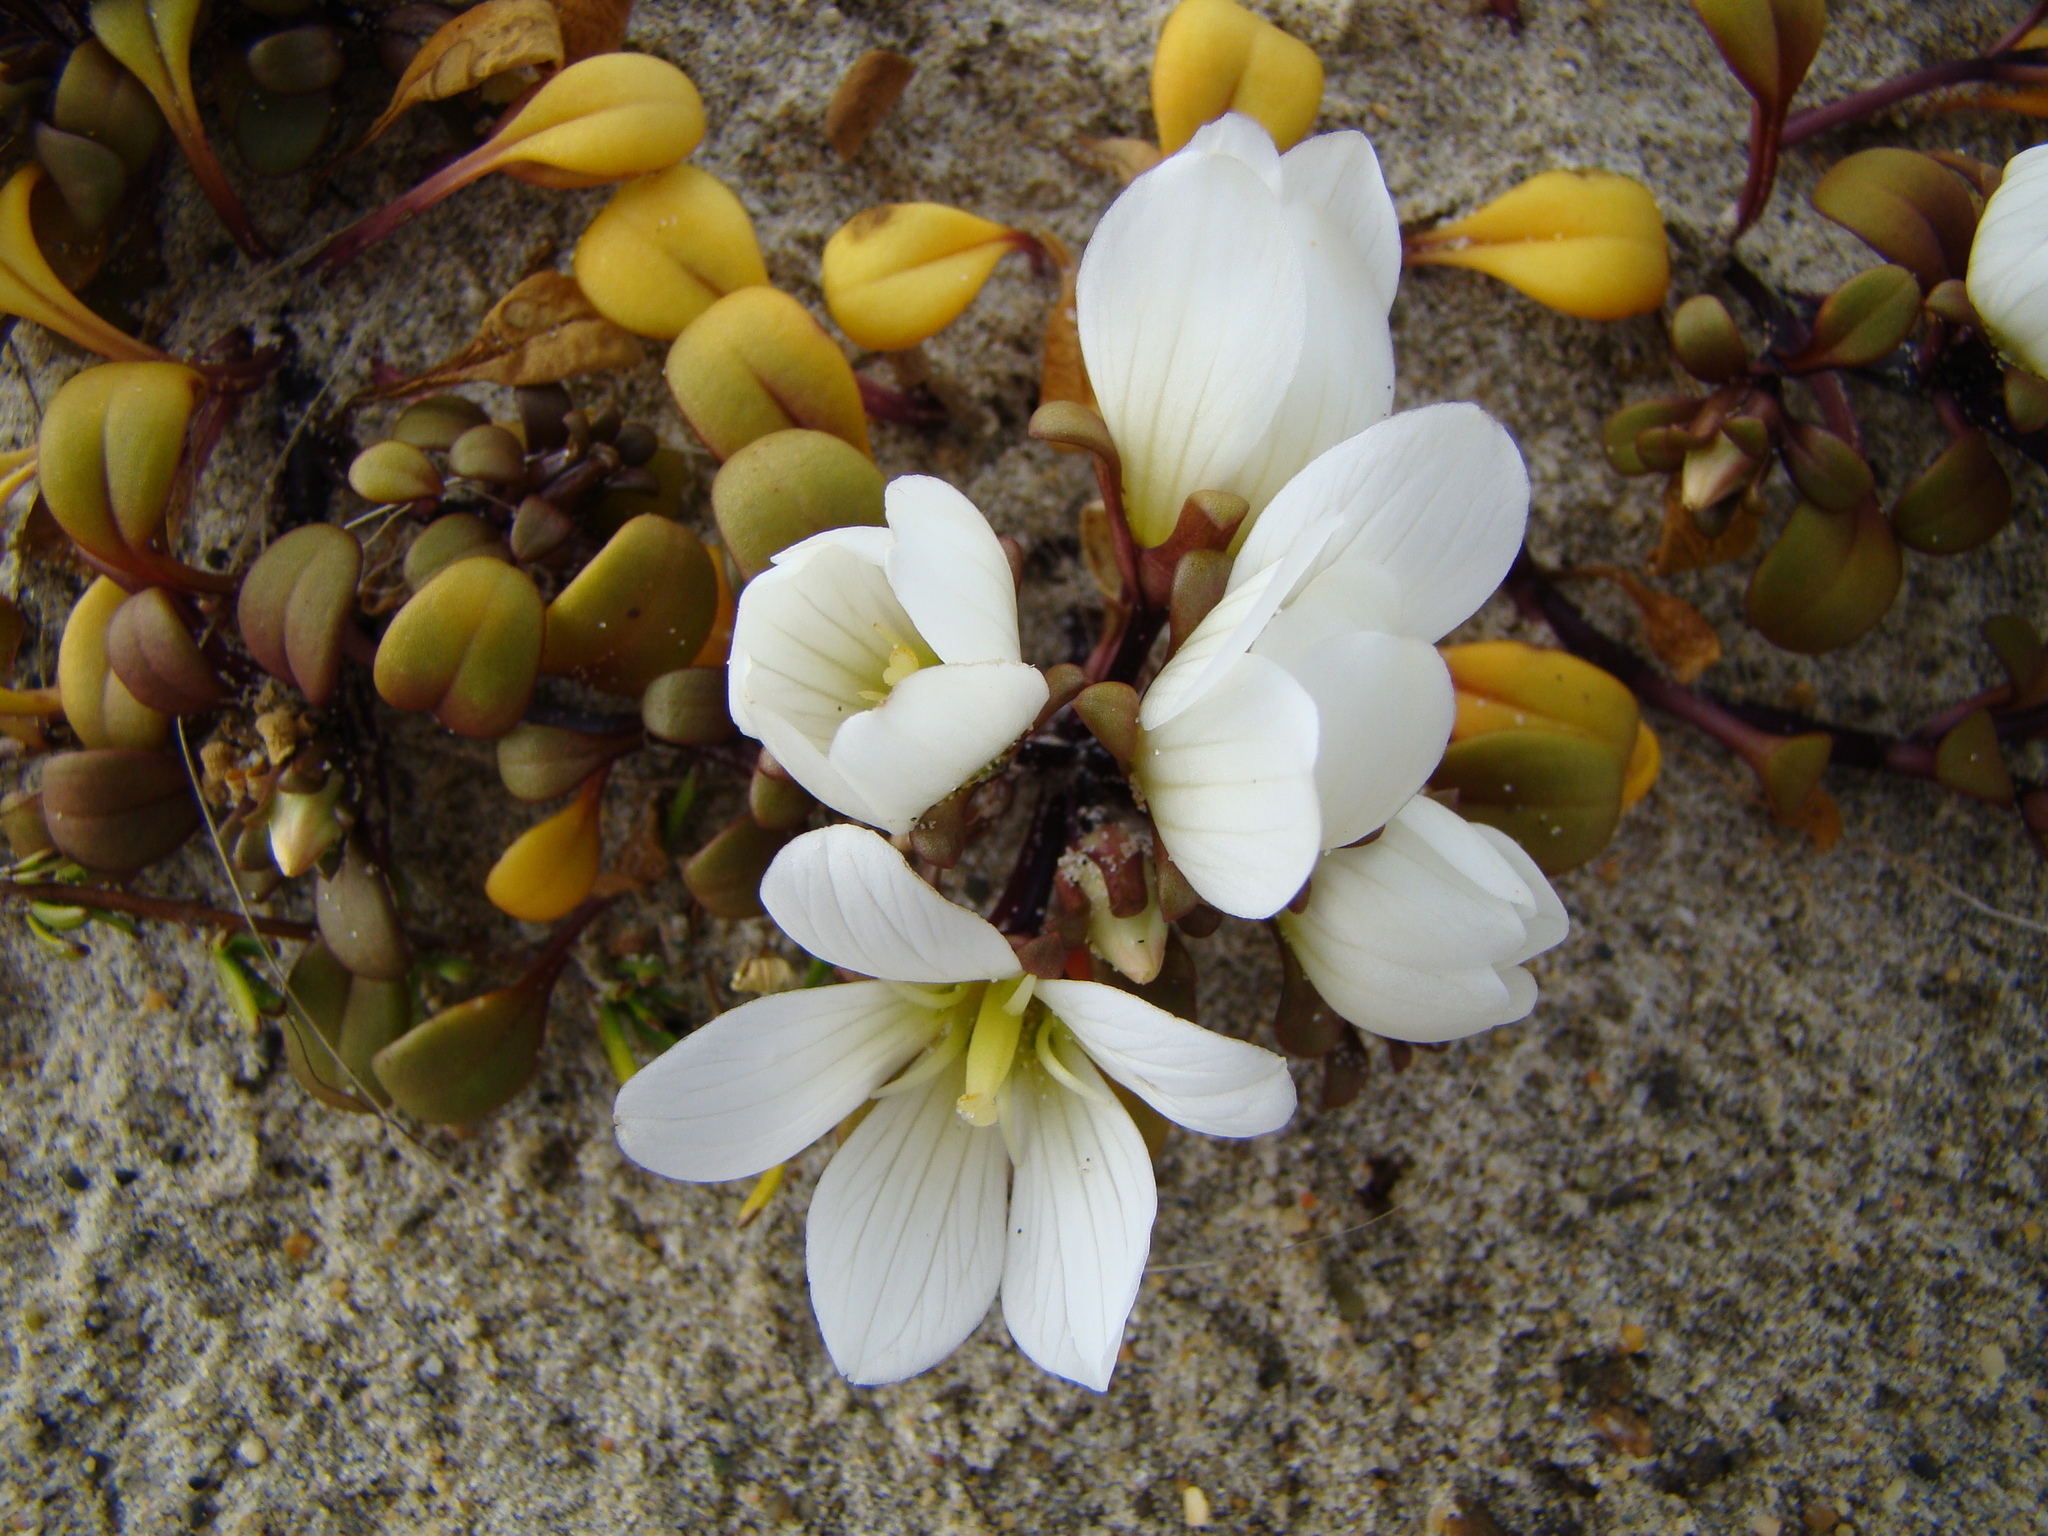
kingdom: Plantae
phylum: Tracheophyta
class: Magnoliopsida
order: Gentianales
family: Gentianaceae
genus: Gentianella
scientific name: Gentianella saxosa
